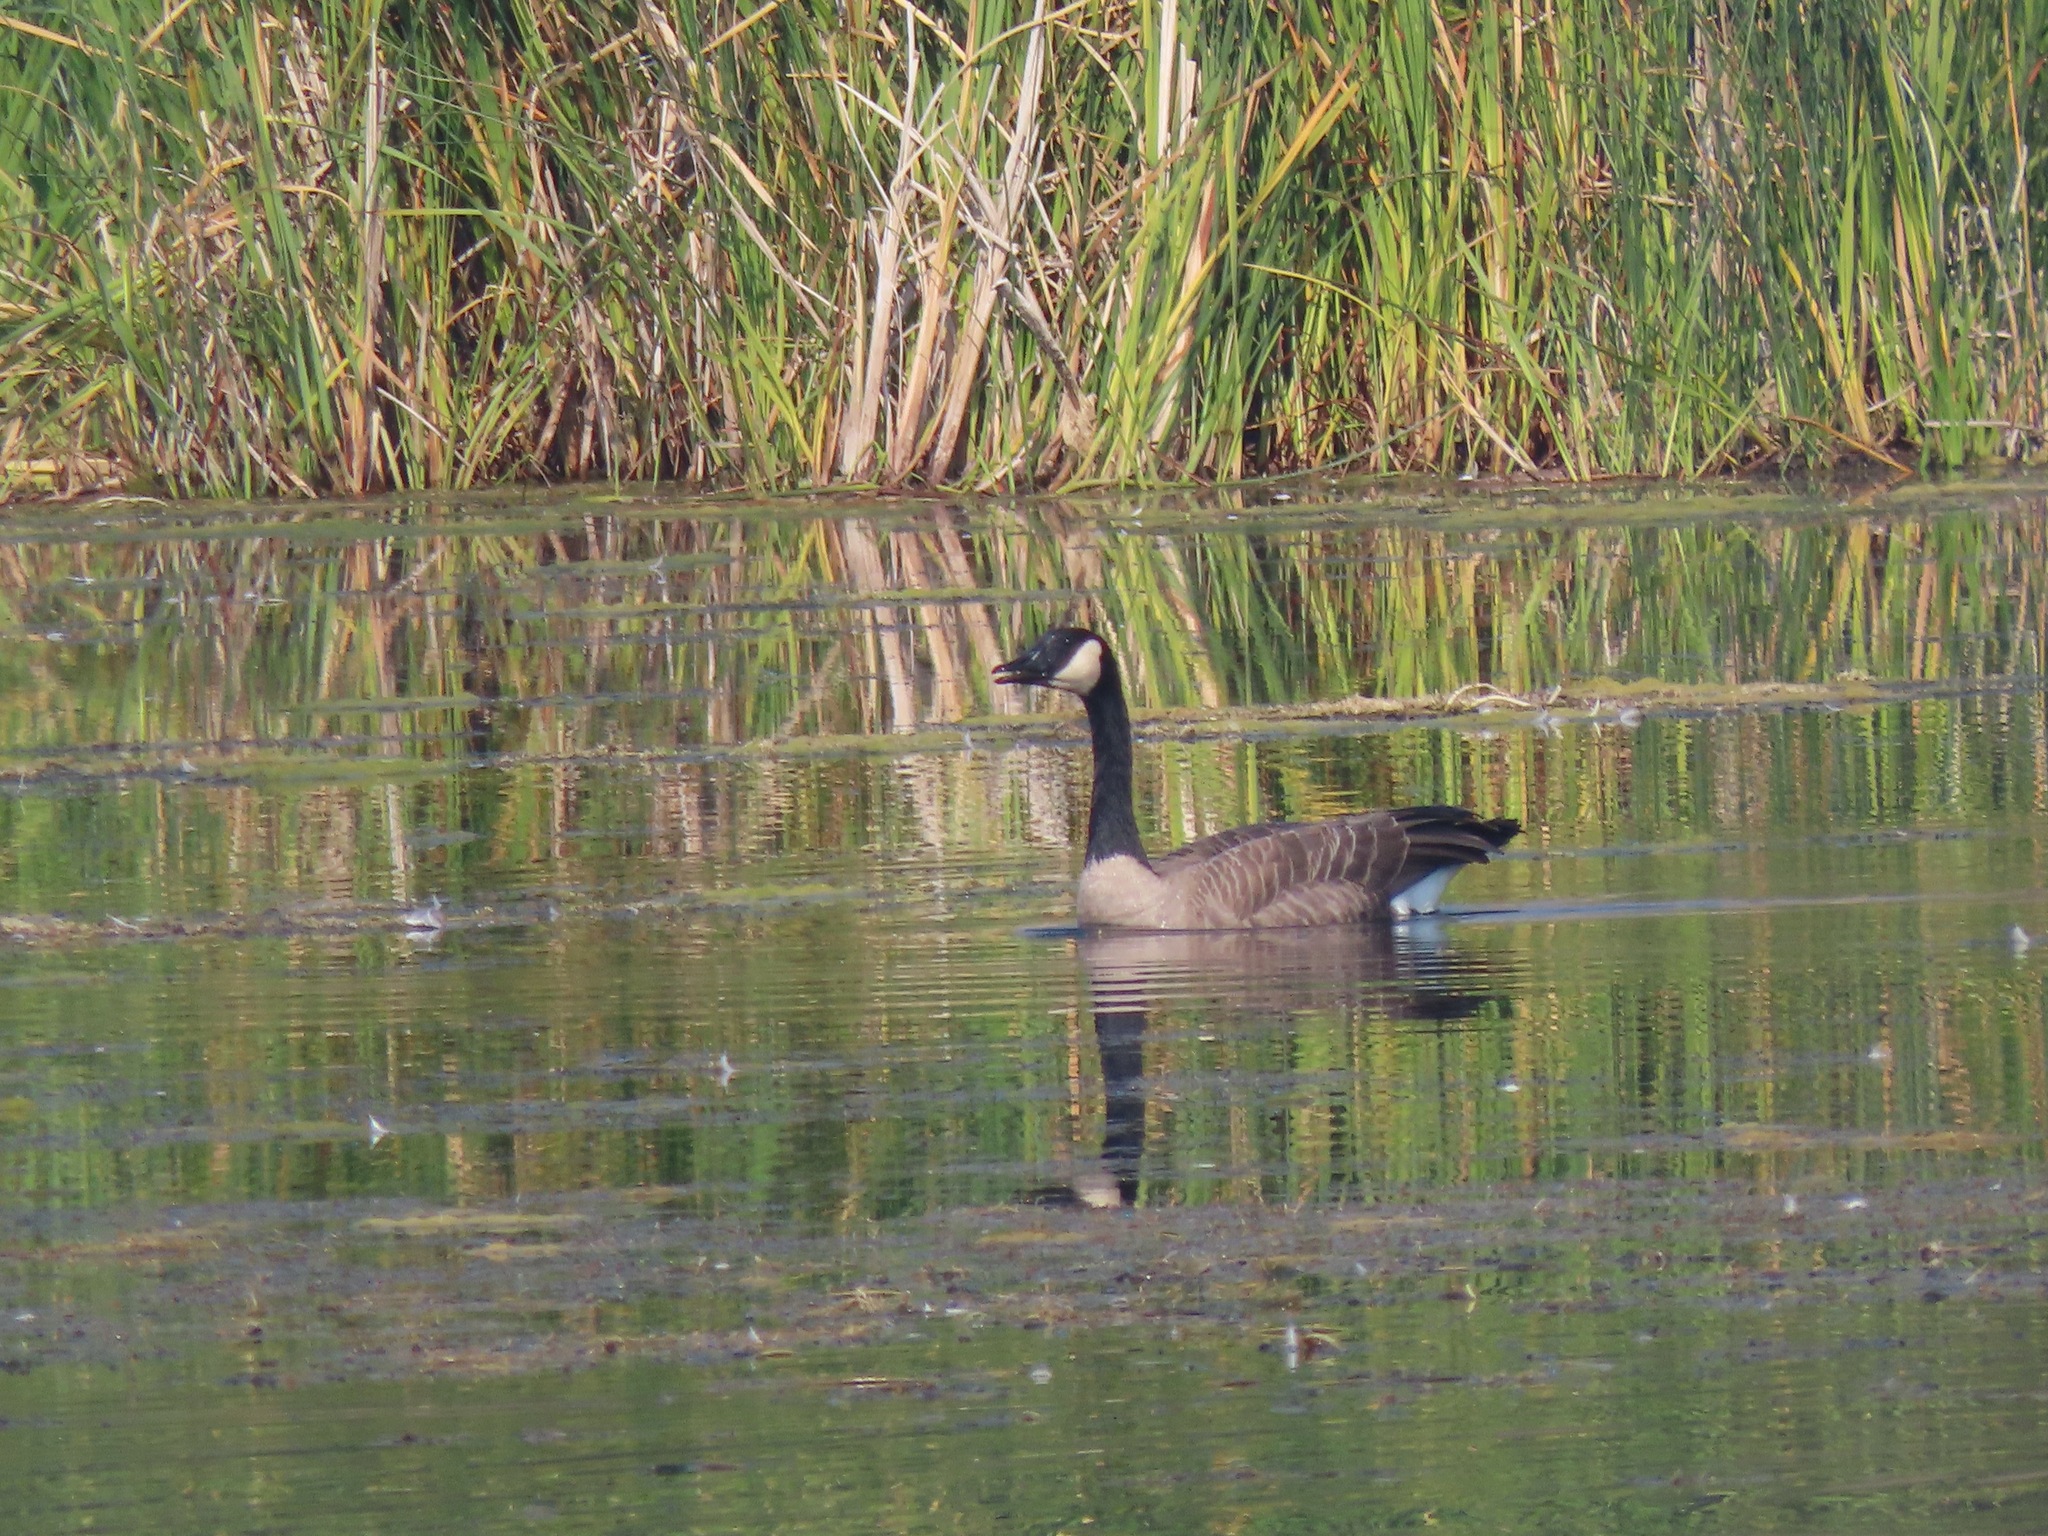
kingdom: Animalia
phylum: Chordata
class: Aves
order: Anseriformes
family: Anatidae
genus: Branta
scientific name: Branta canadensis
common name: Canada goose
